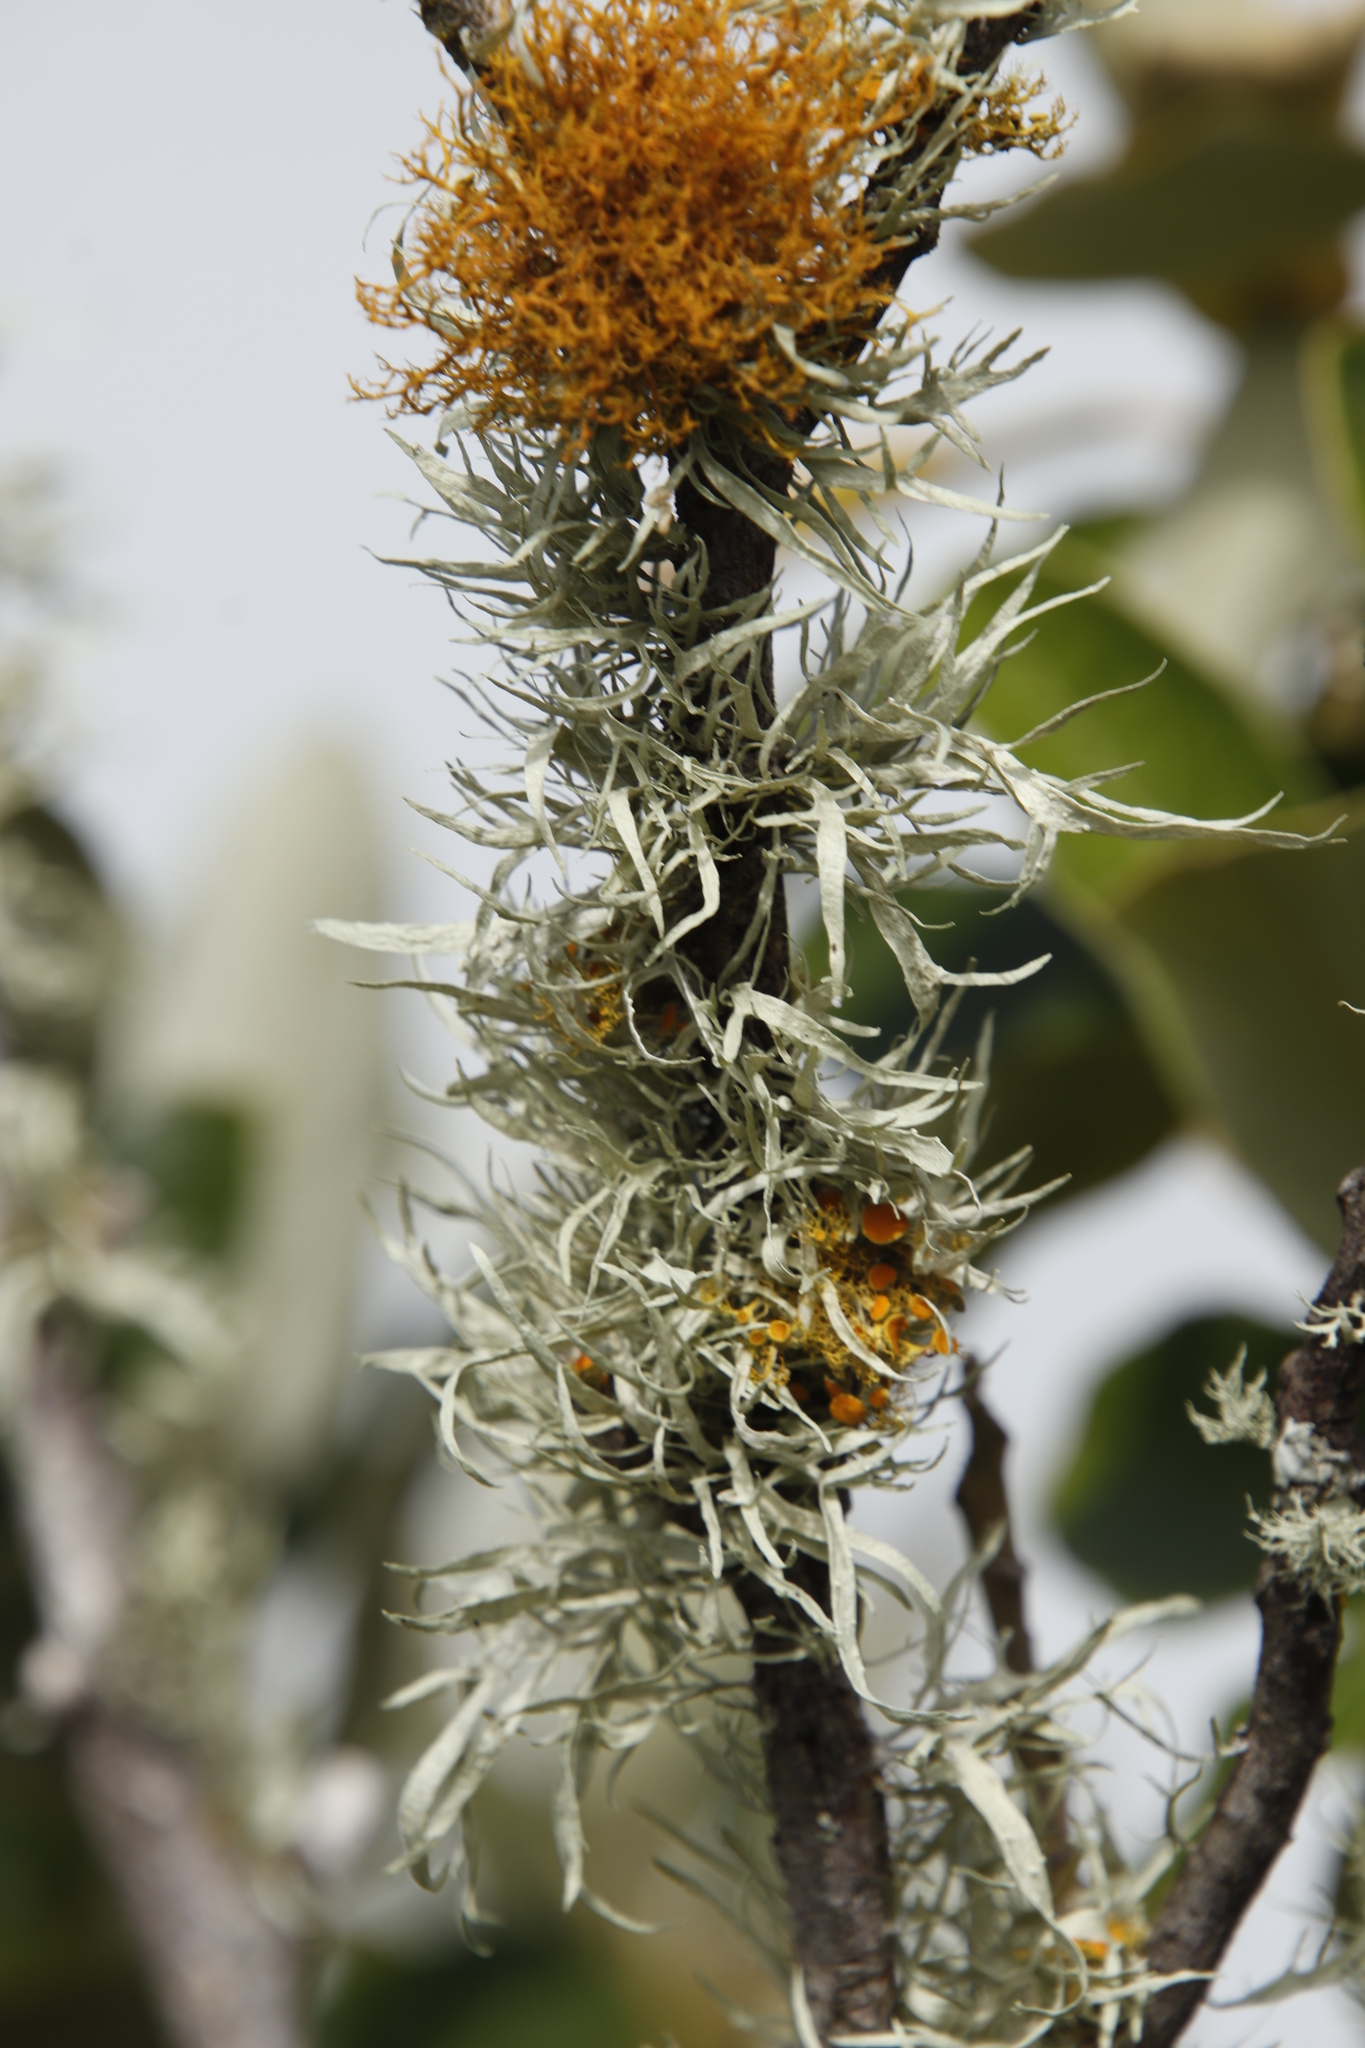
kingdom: Fungi
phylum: Ascomycota
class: Lecanoromycetes
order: Lecanorales
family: Ramalinaceae
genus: Ramalina
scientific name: Ramalina celastri
